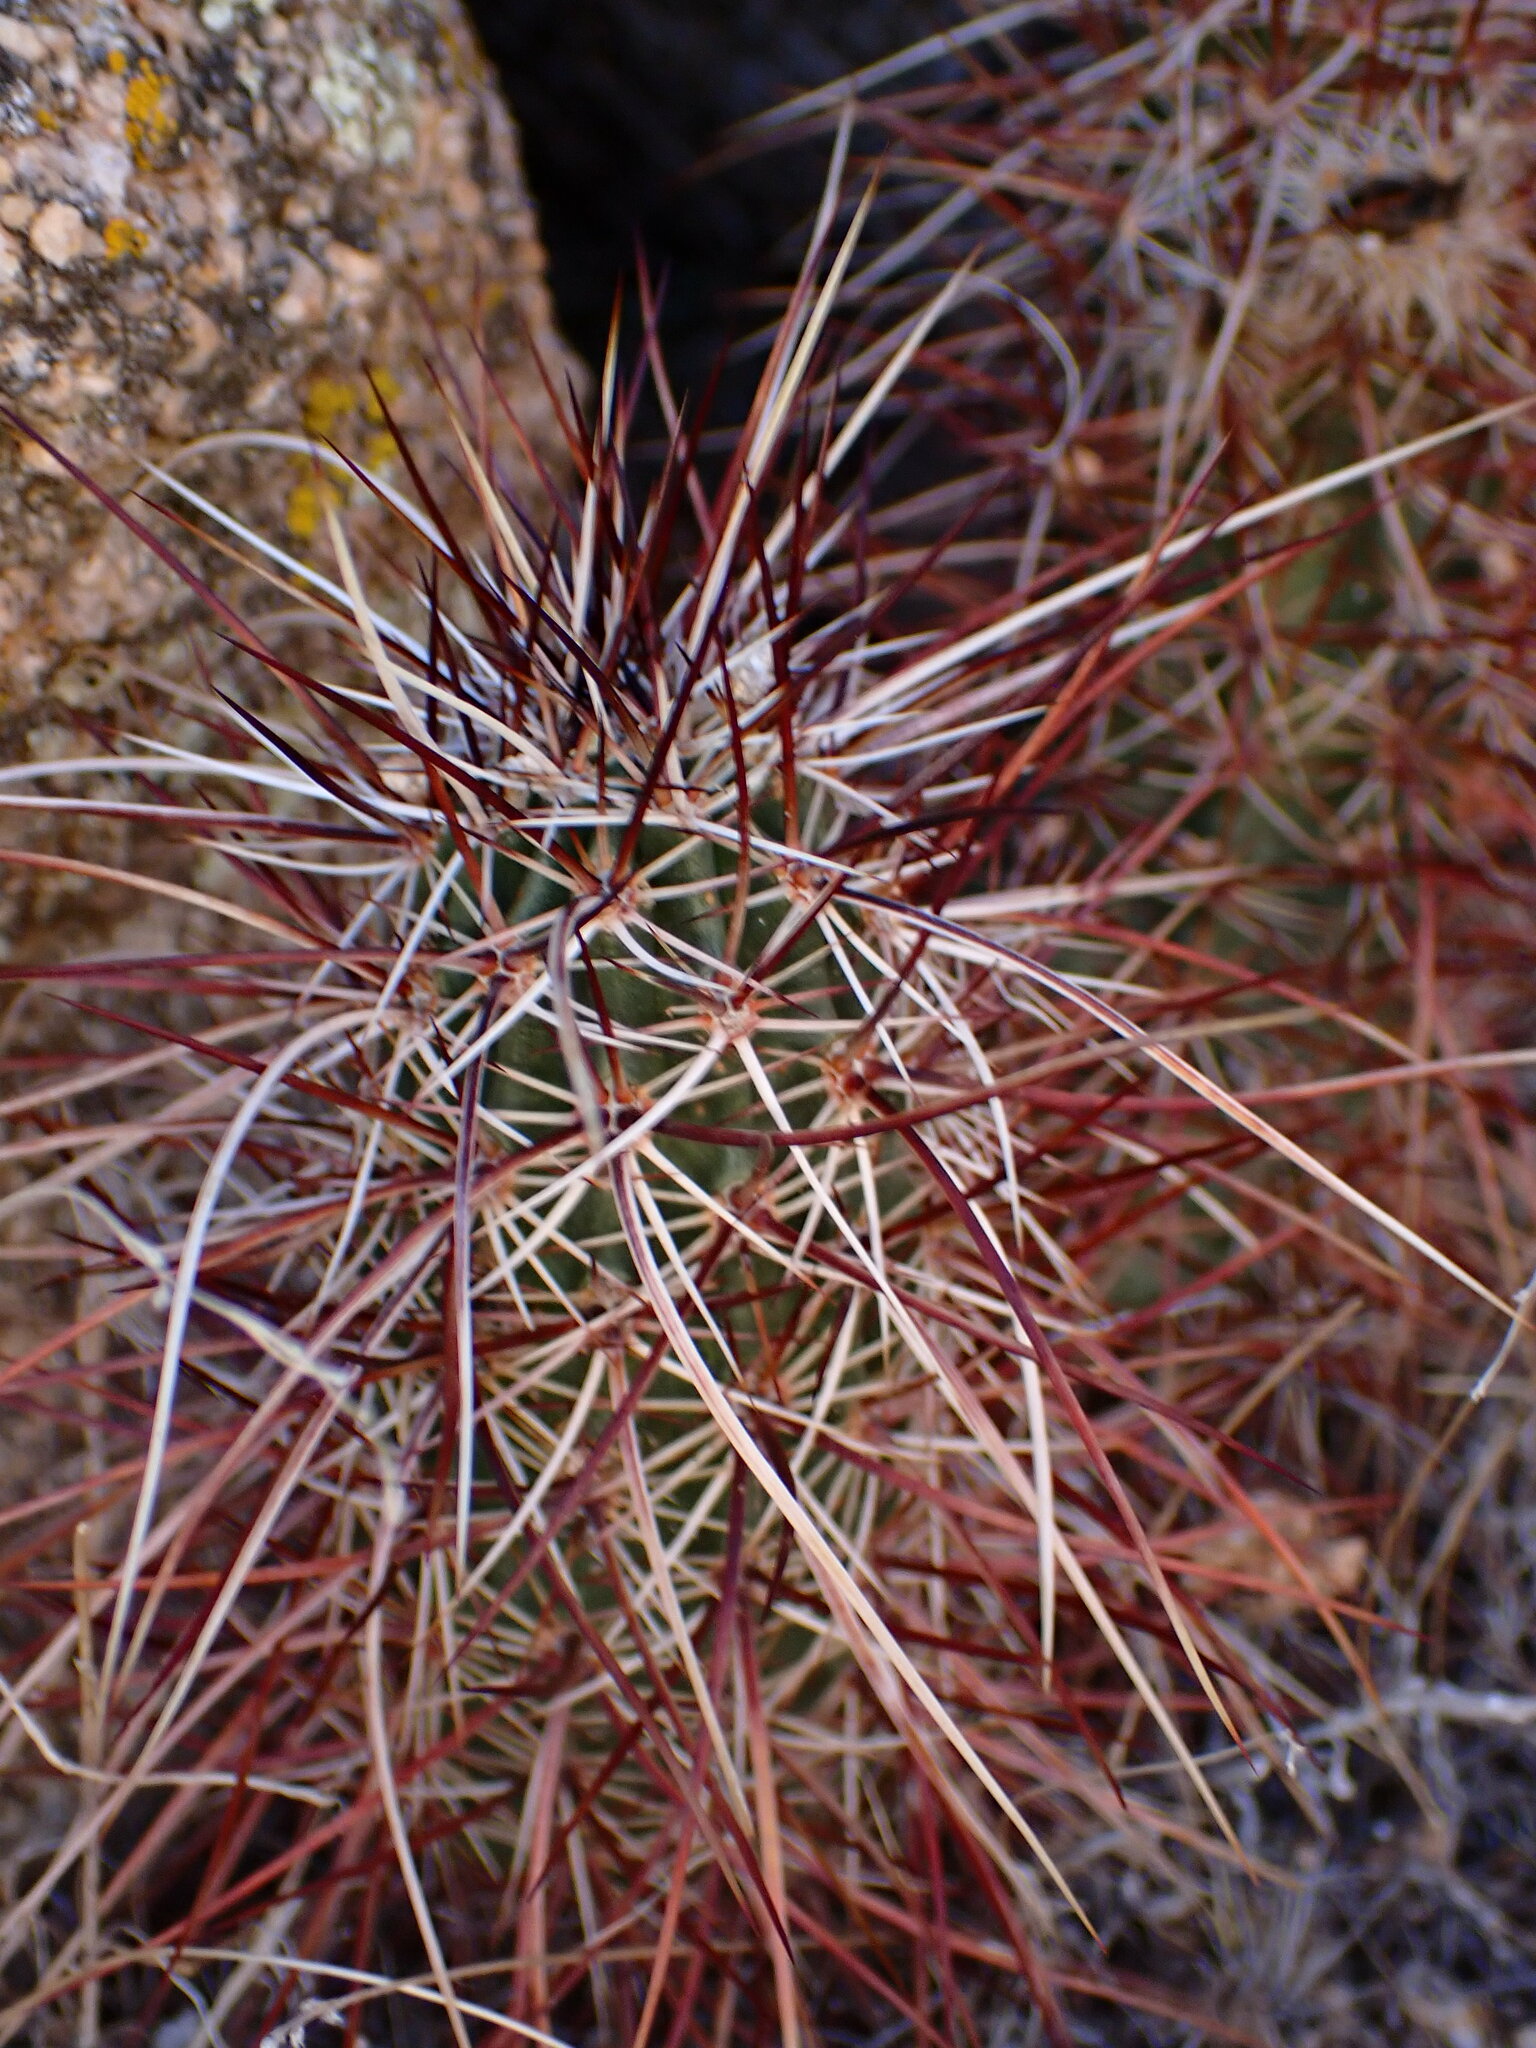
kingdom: Plantae
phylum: Tracheophyta
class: Magnoliopsida
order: Caryophyllales
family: Cactaceae
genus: Echinocereus
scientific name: Echinocereus engelmannii
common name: Engelmann's hedgehog cactus
